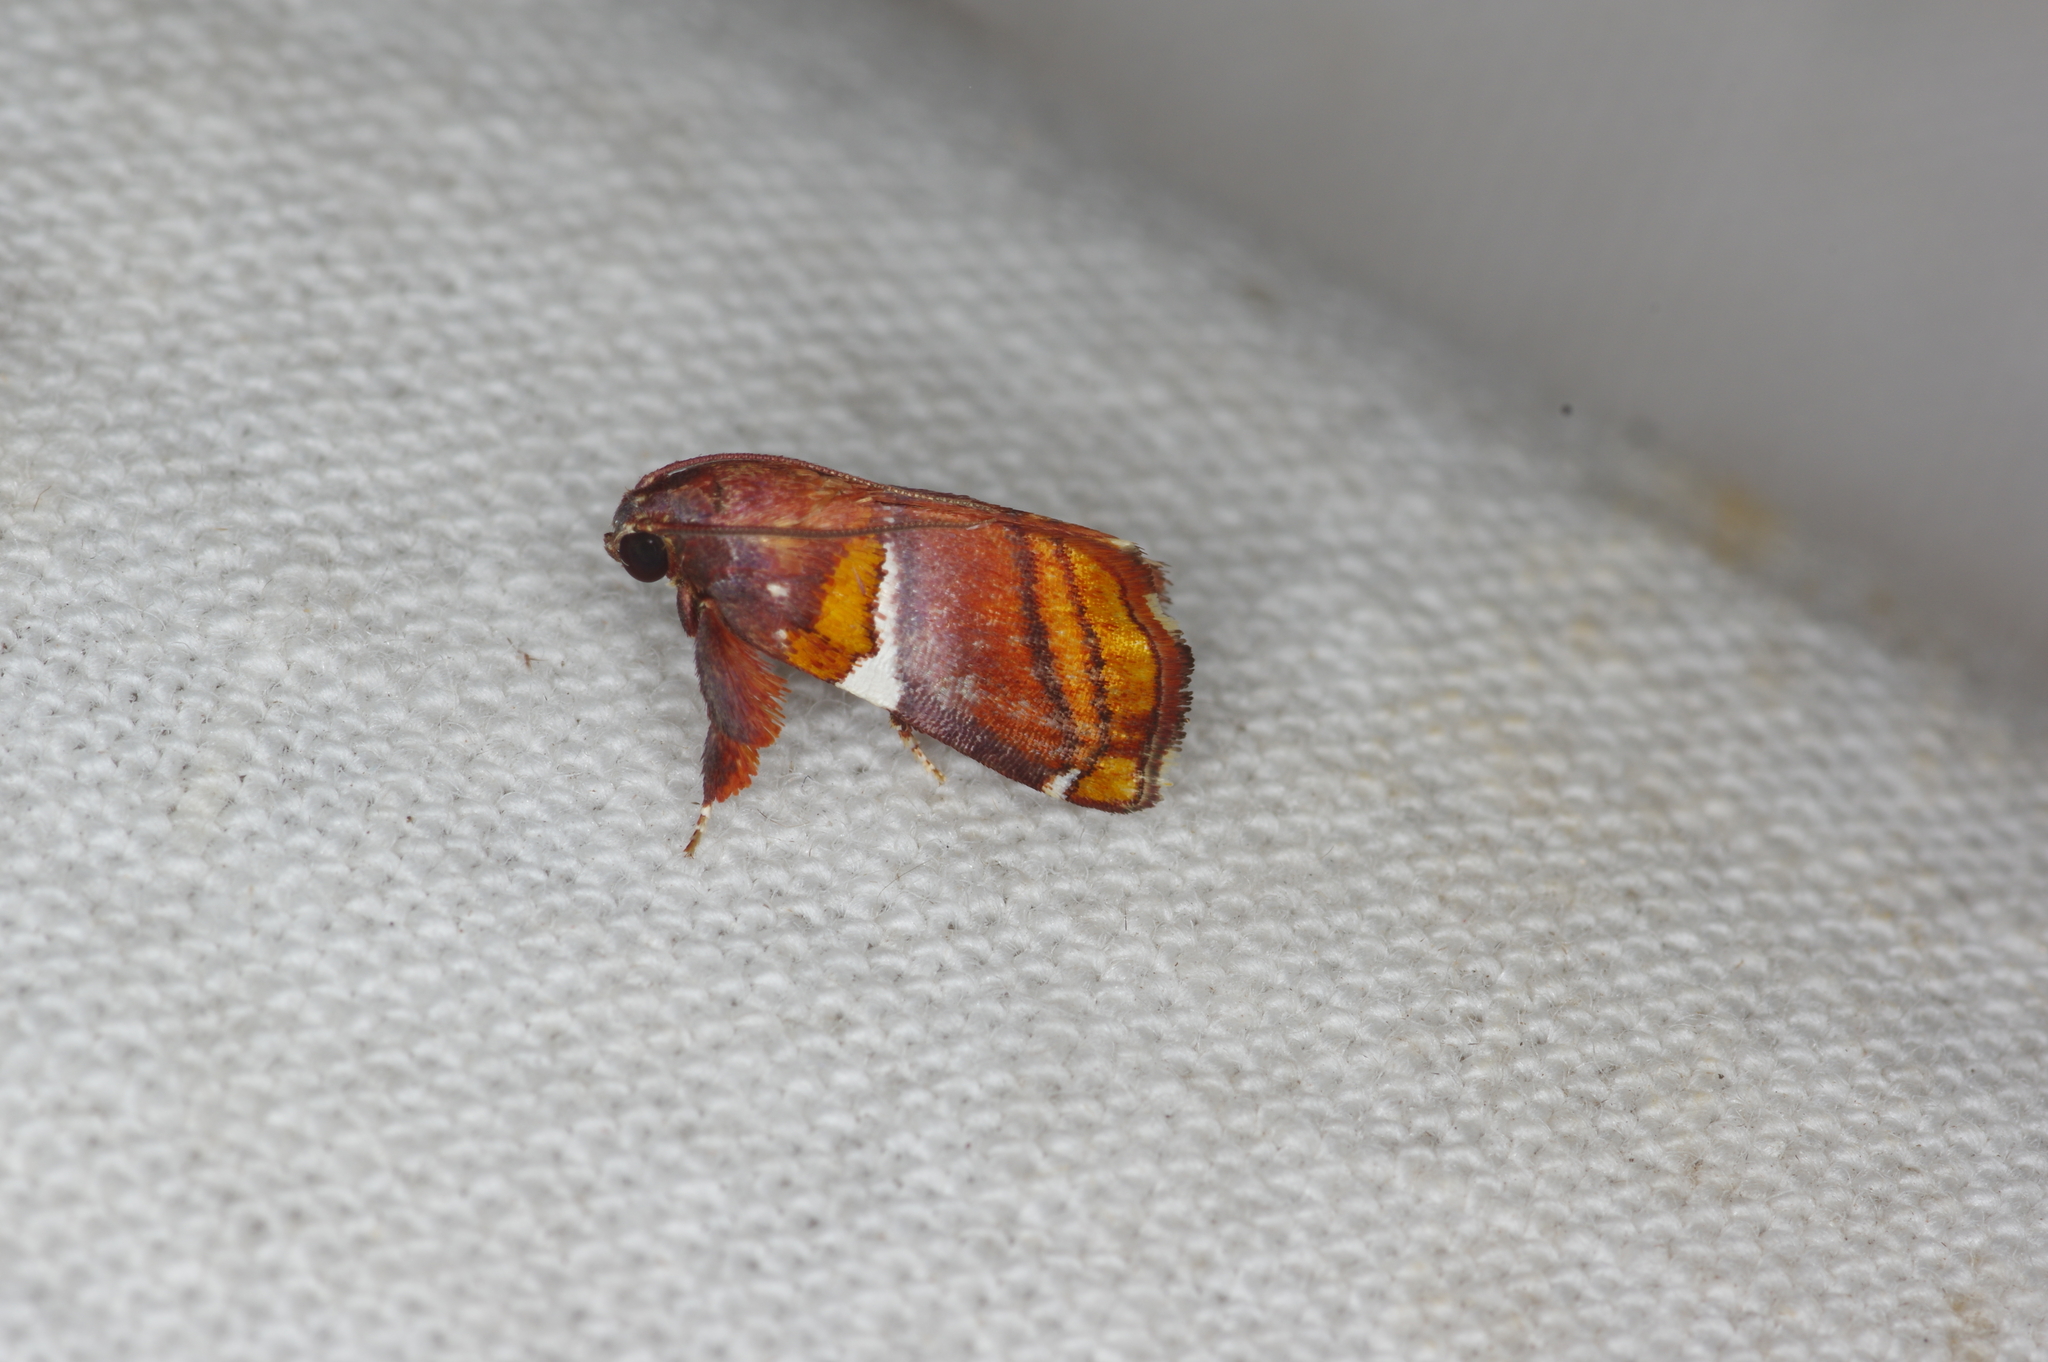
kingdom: Animalia
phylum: Arthropoda
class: Insecta
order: Lepidoptera
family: Pyralidae
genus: Hypocosmia
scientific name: Hypocosmia floralis
